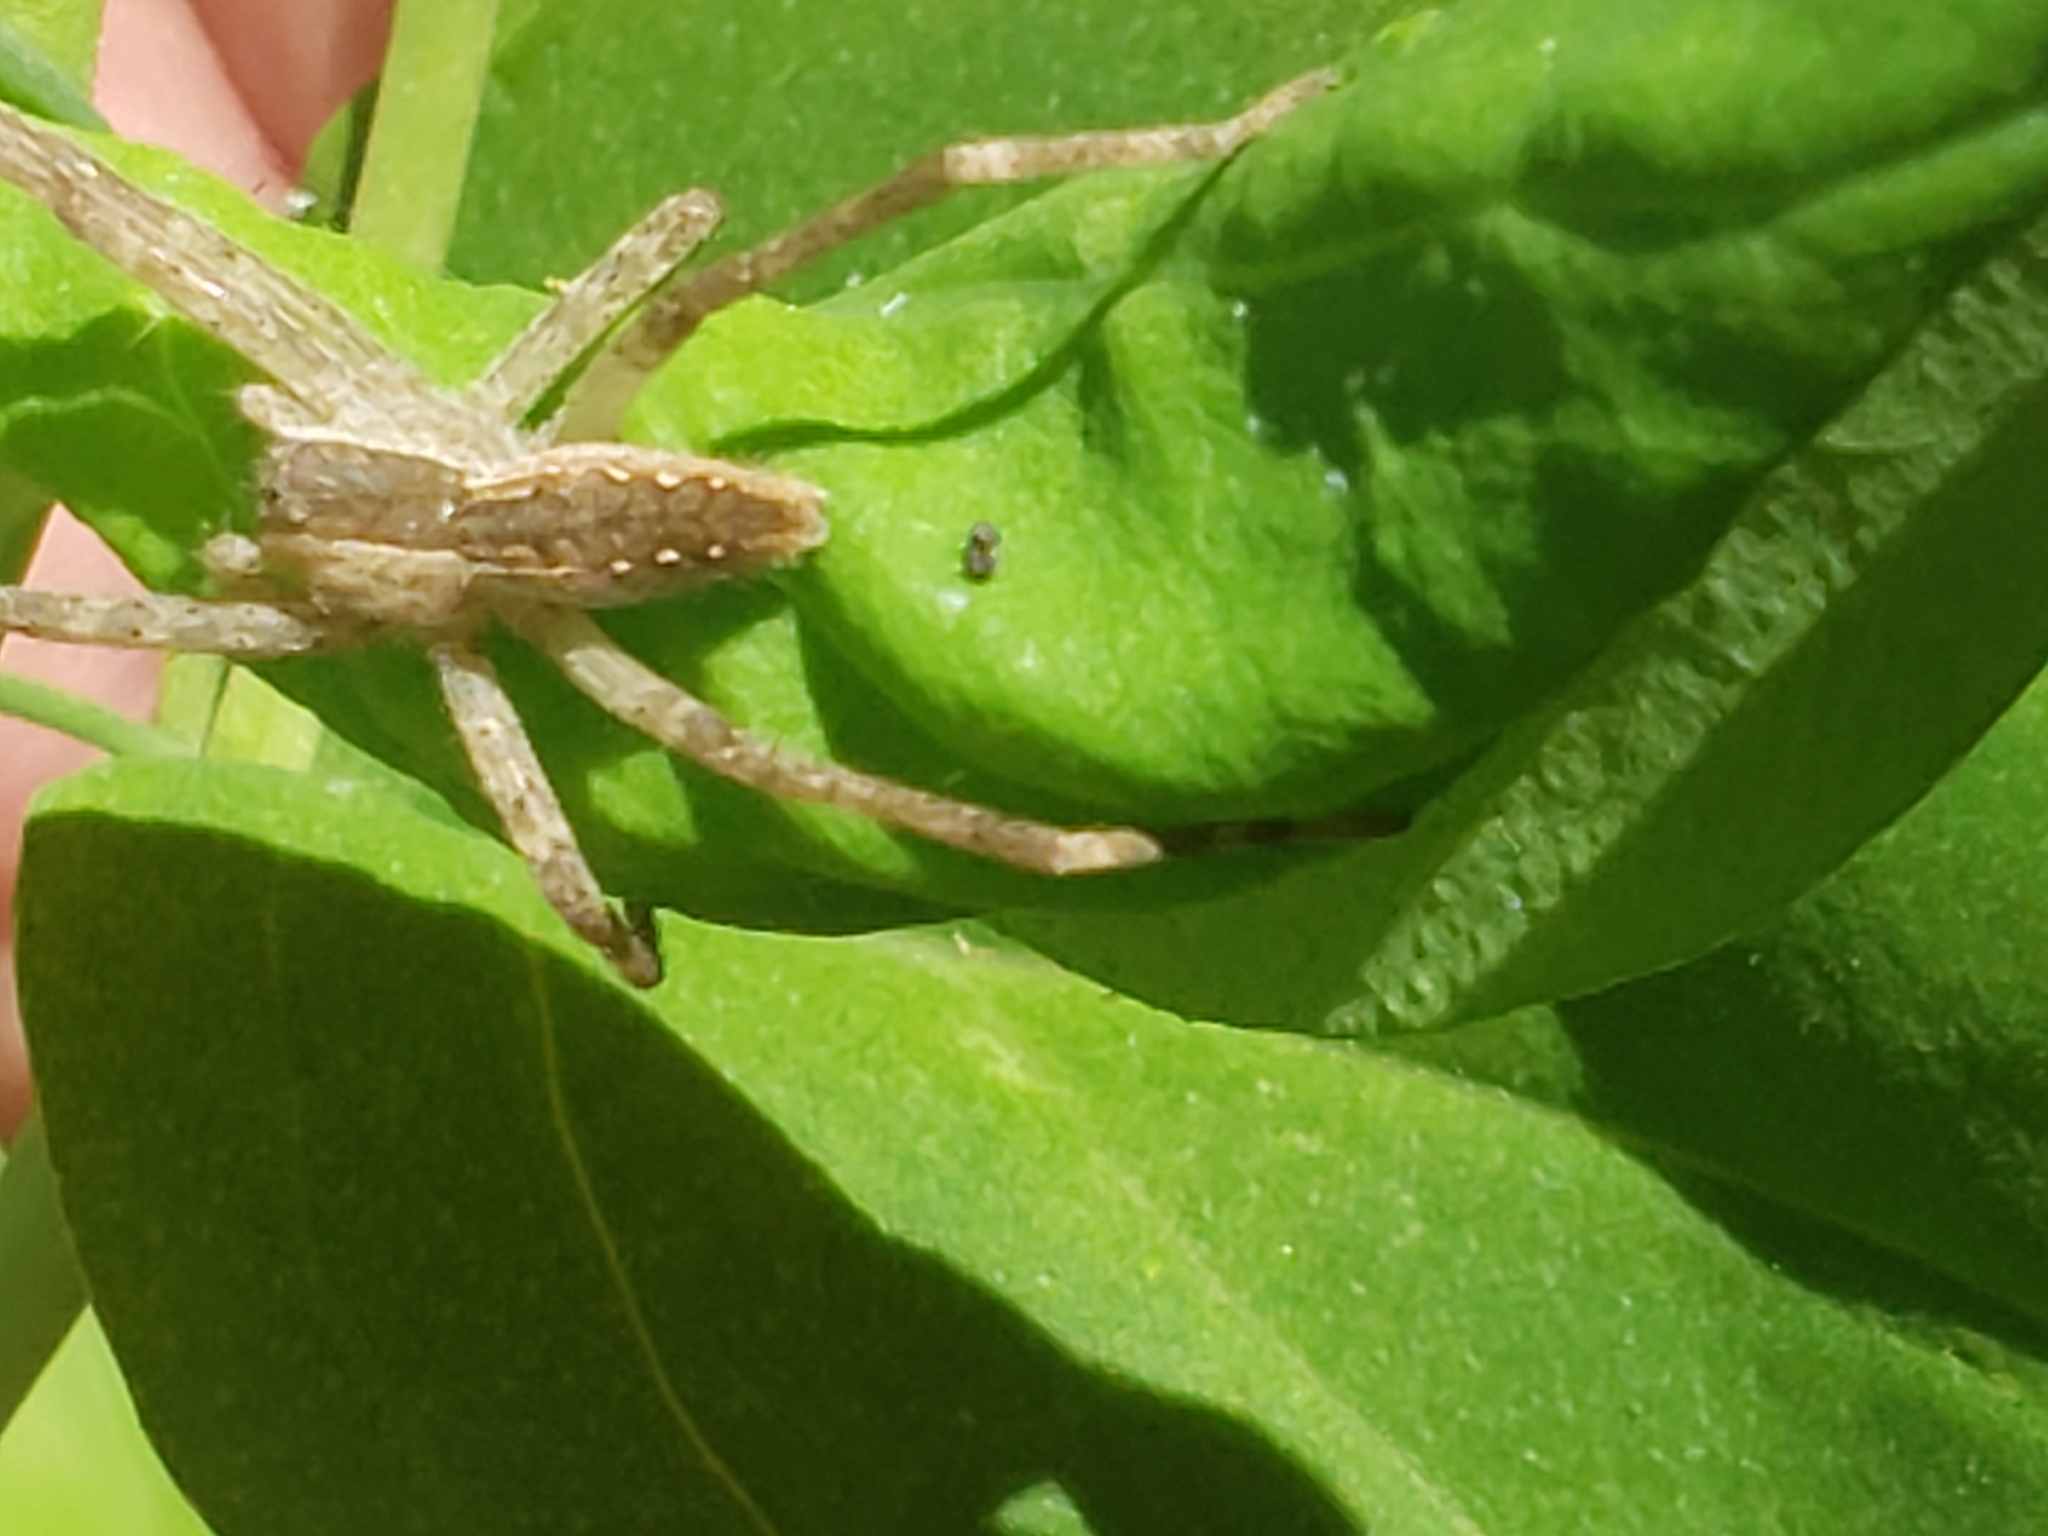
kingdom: Animalia
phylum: Arthropoda
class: Arachnida
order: Araneae
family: Pisauridae
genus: Pisaurina
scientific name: Pisaurina mira
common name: American nursery web spider
